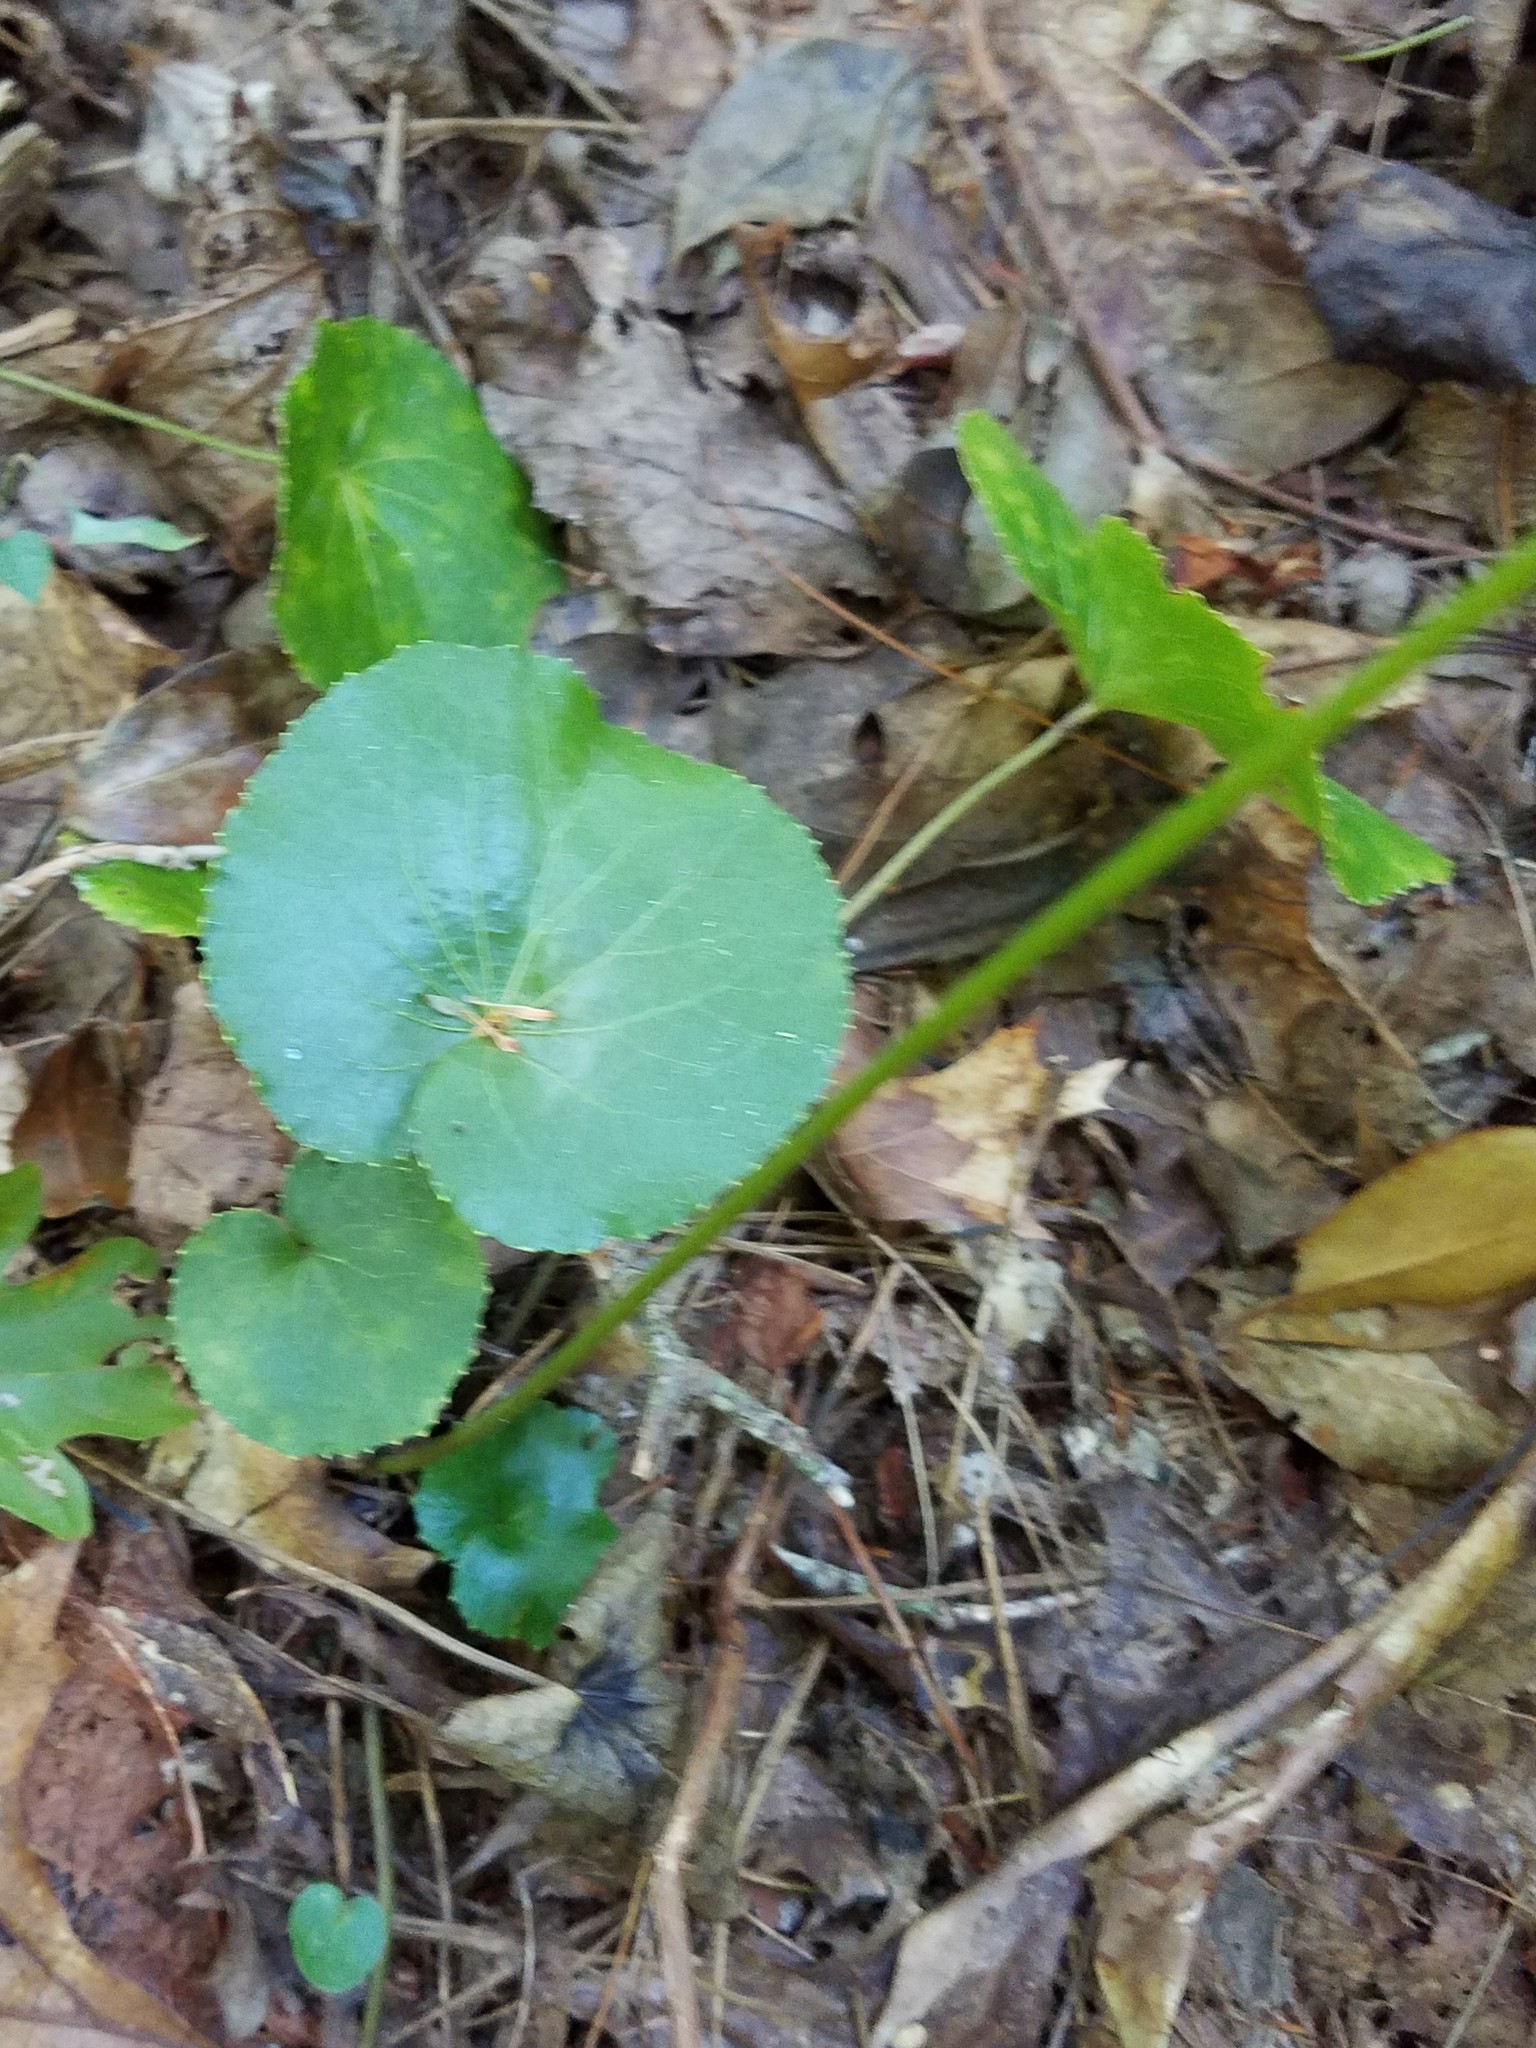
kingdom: Plantae
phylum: Tracheophyta
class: Magnoliopsida
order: Ericales
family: Diapensiaceae
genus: Galax
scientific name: Galax urceolata
